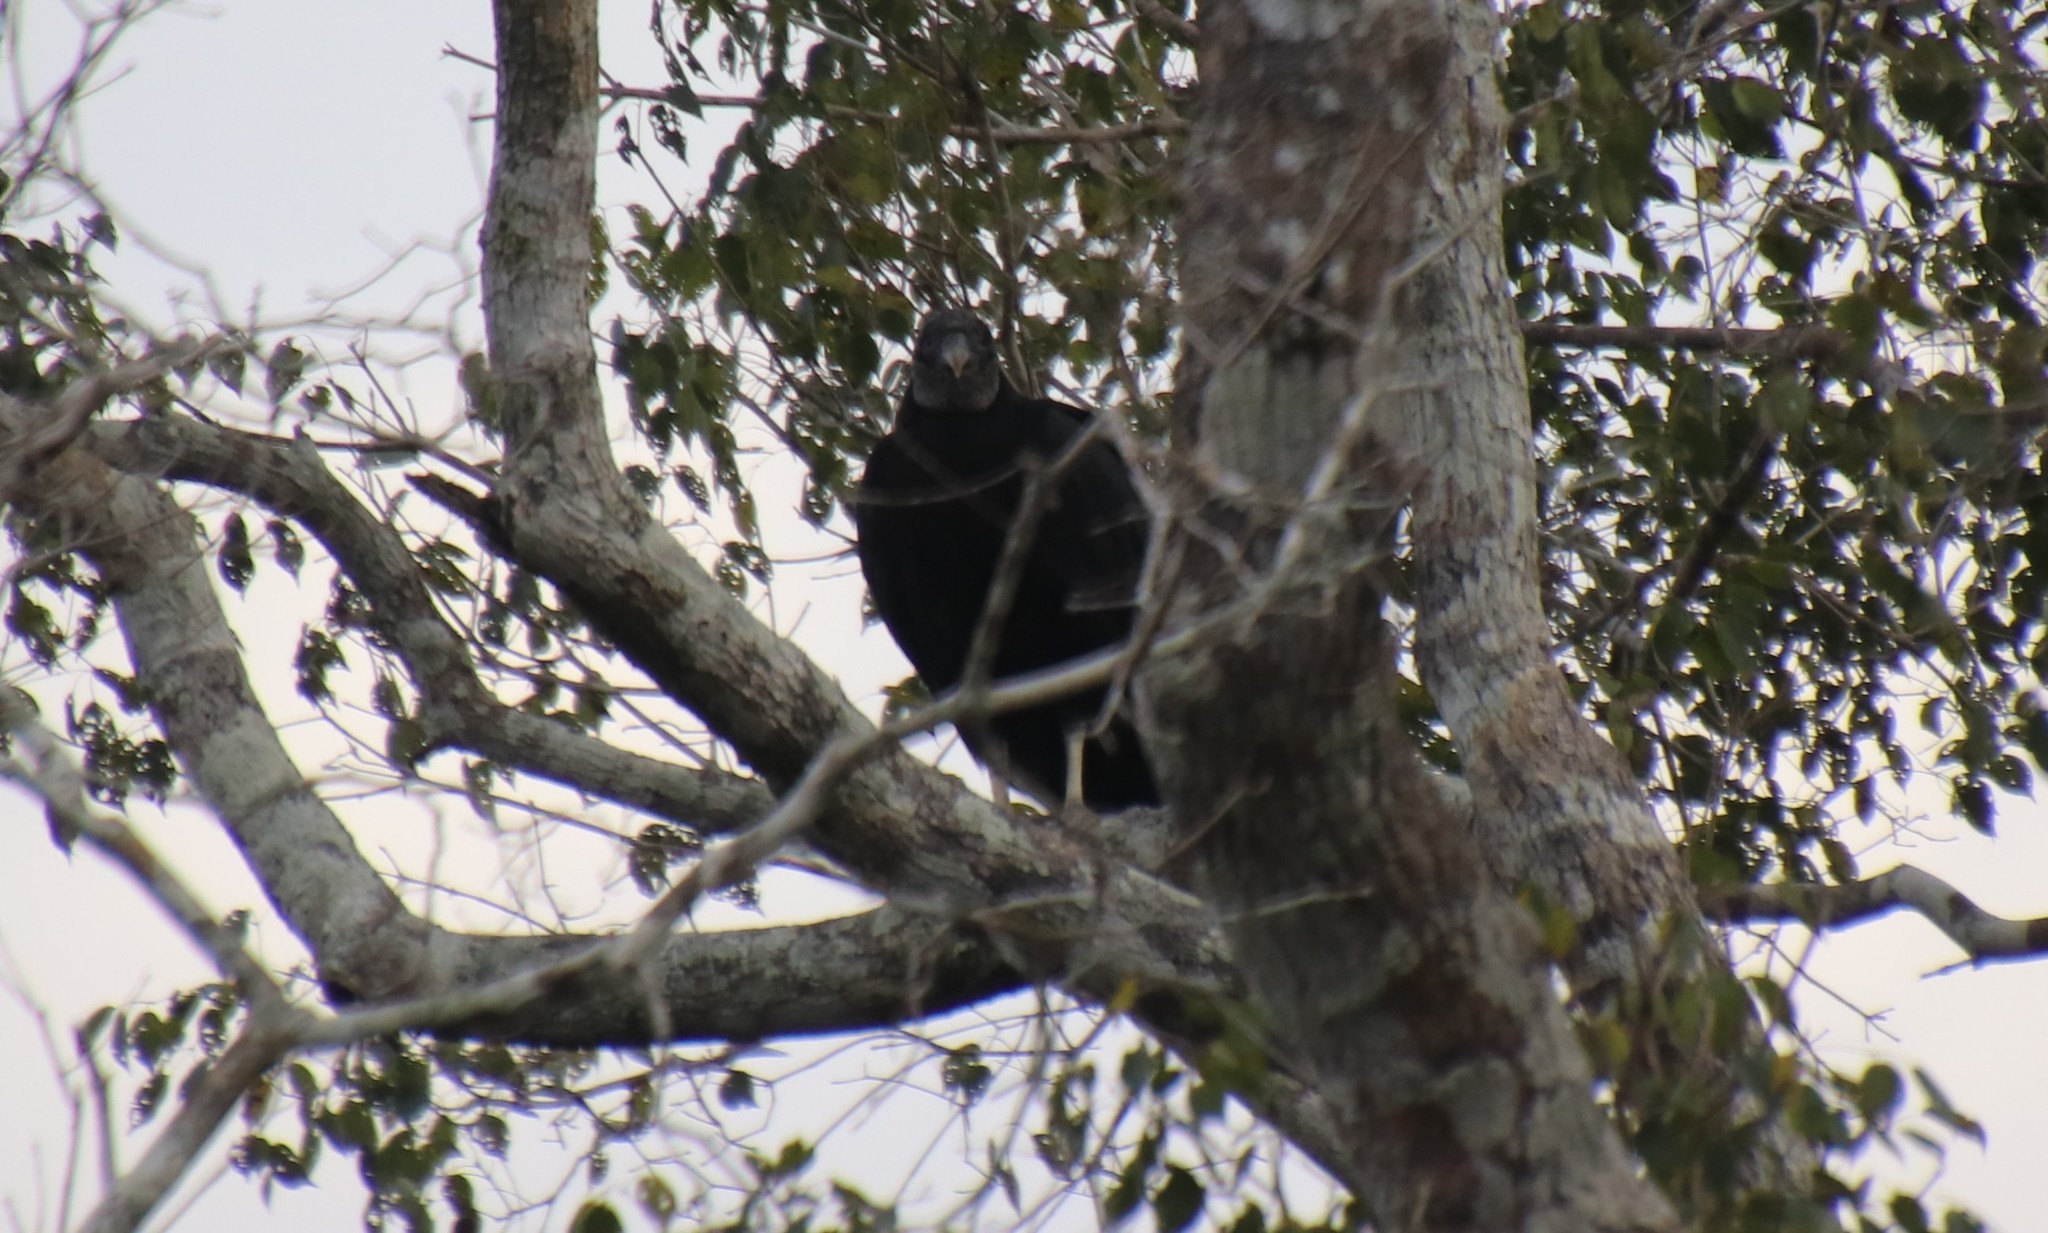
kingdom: Animalia
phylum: Chordata
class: Aves
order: Accipitriformes
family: Cathartidae
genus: Coragyps
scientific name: Coragyps atratus
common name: Black vulture
